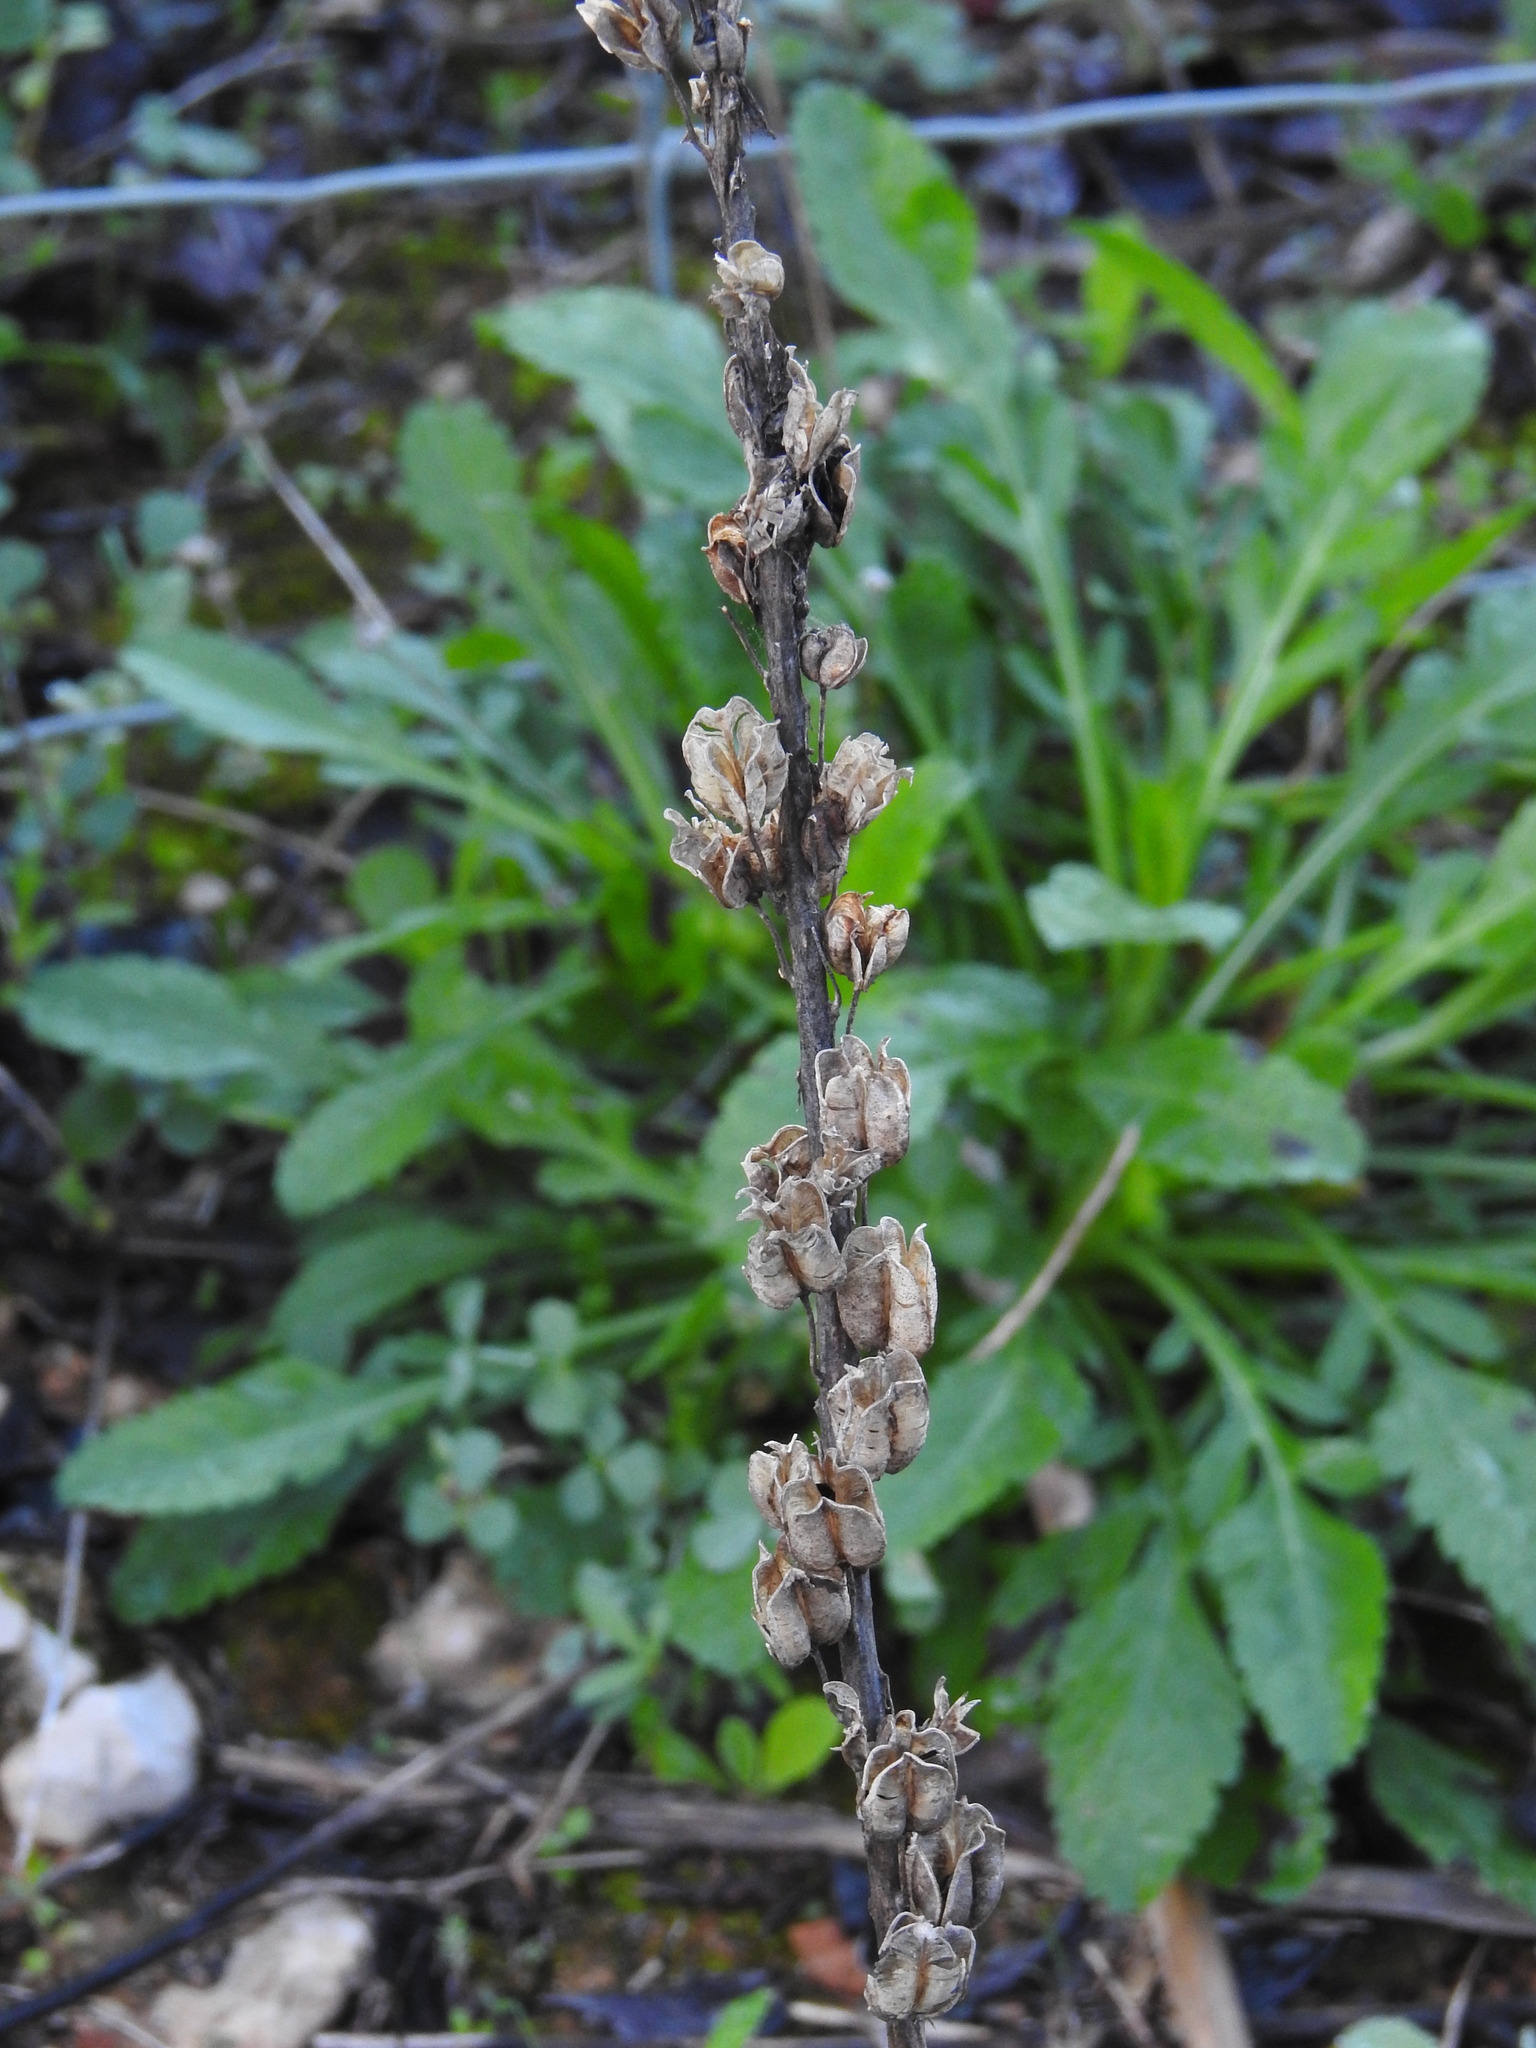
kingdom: Plantae
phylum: Tracheophyta
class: Liliopsida
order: Asparagales
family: Asparagaceae
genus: Drimia
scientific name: Drimia maritima
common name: Maritime squill
